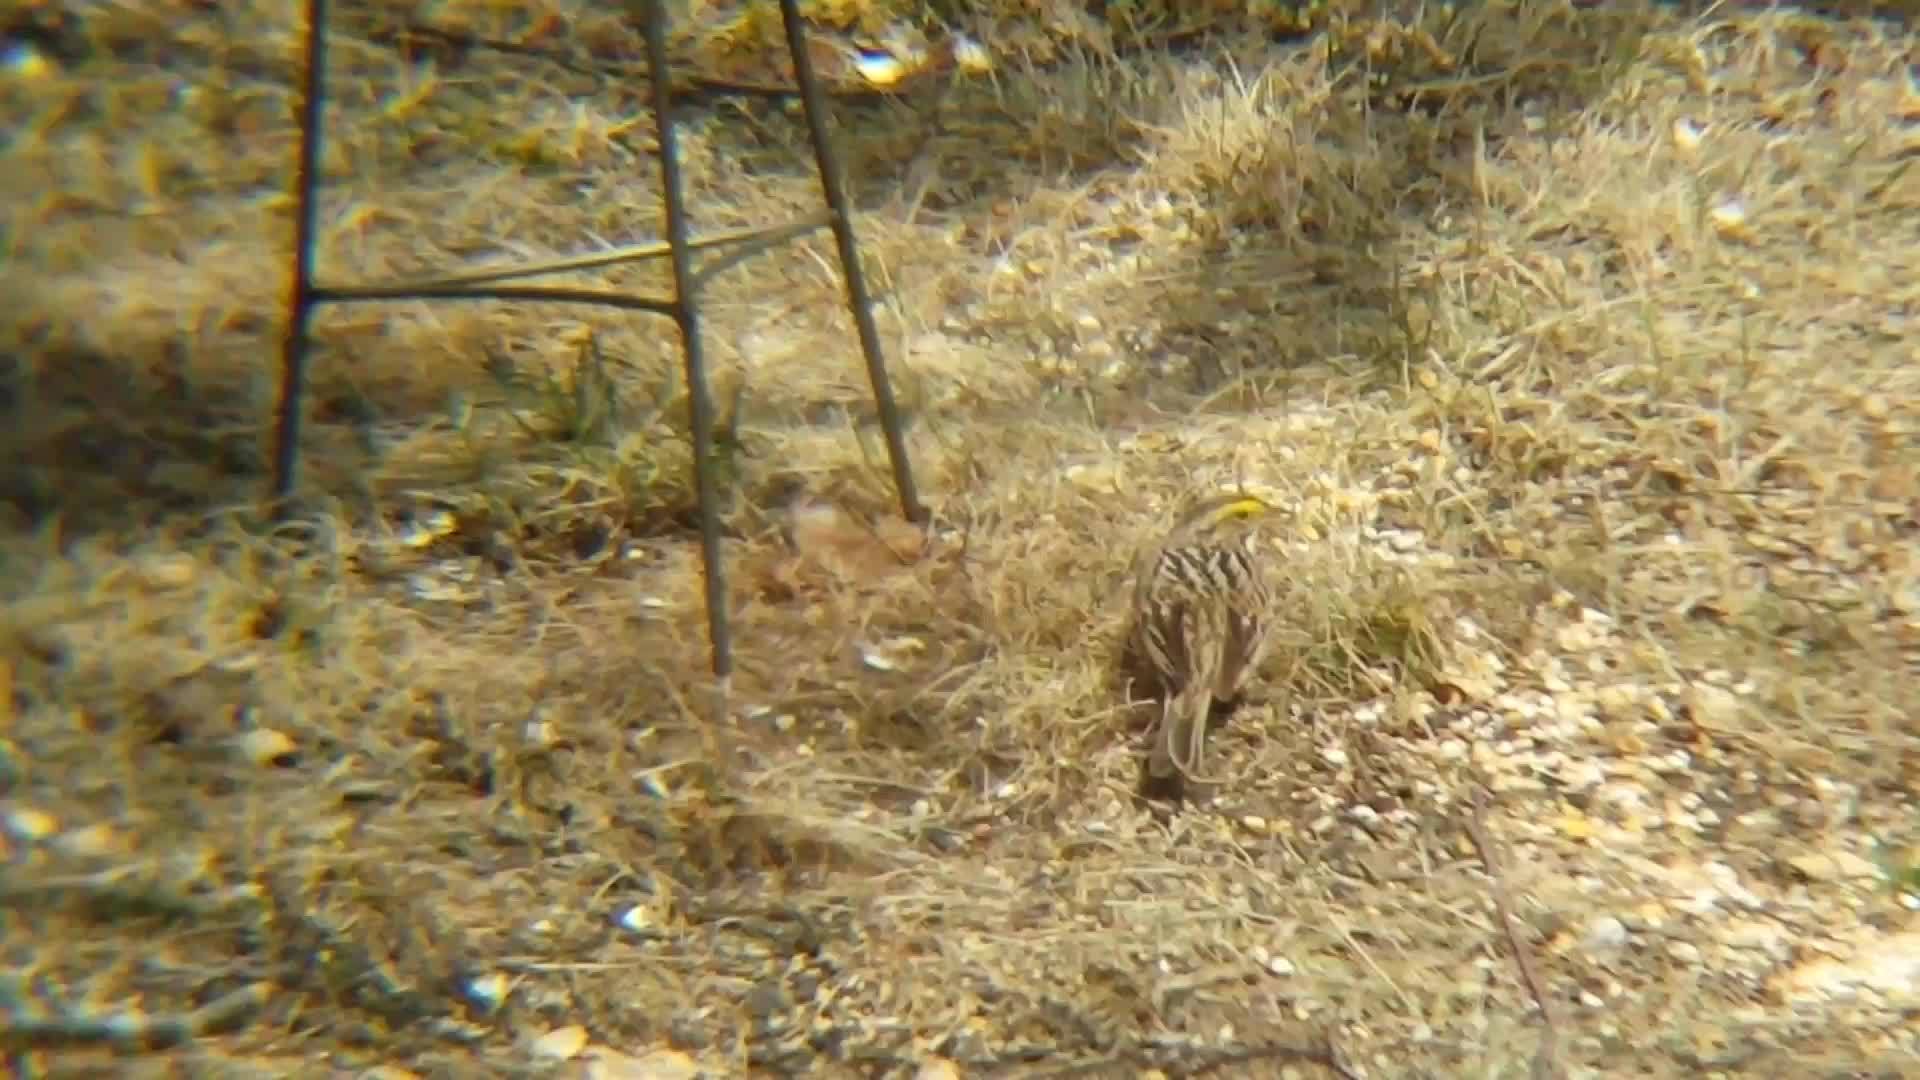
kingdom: Animalia
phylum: Chordata
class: Aves
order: Passeriformes
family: Passerellidae
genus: Passerculus
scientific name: Passerculus sandwichensis
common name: Savannah sparrow
